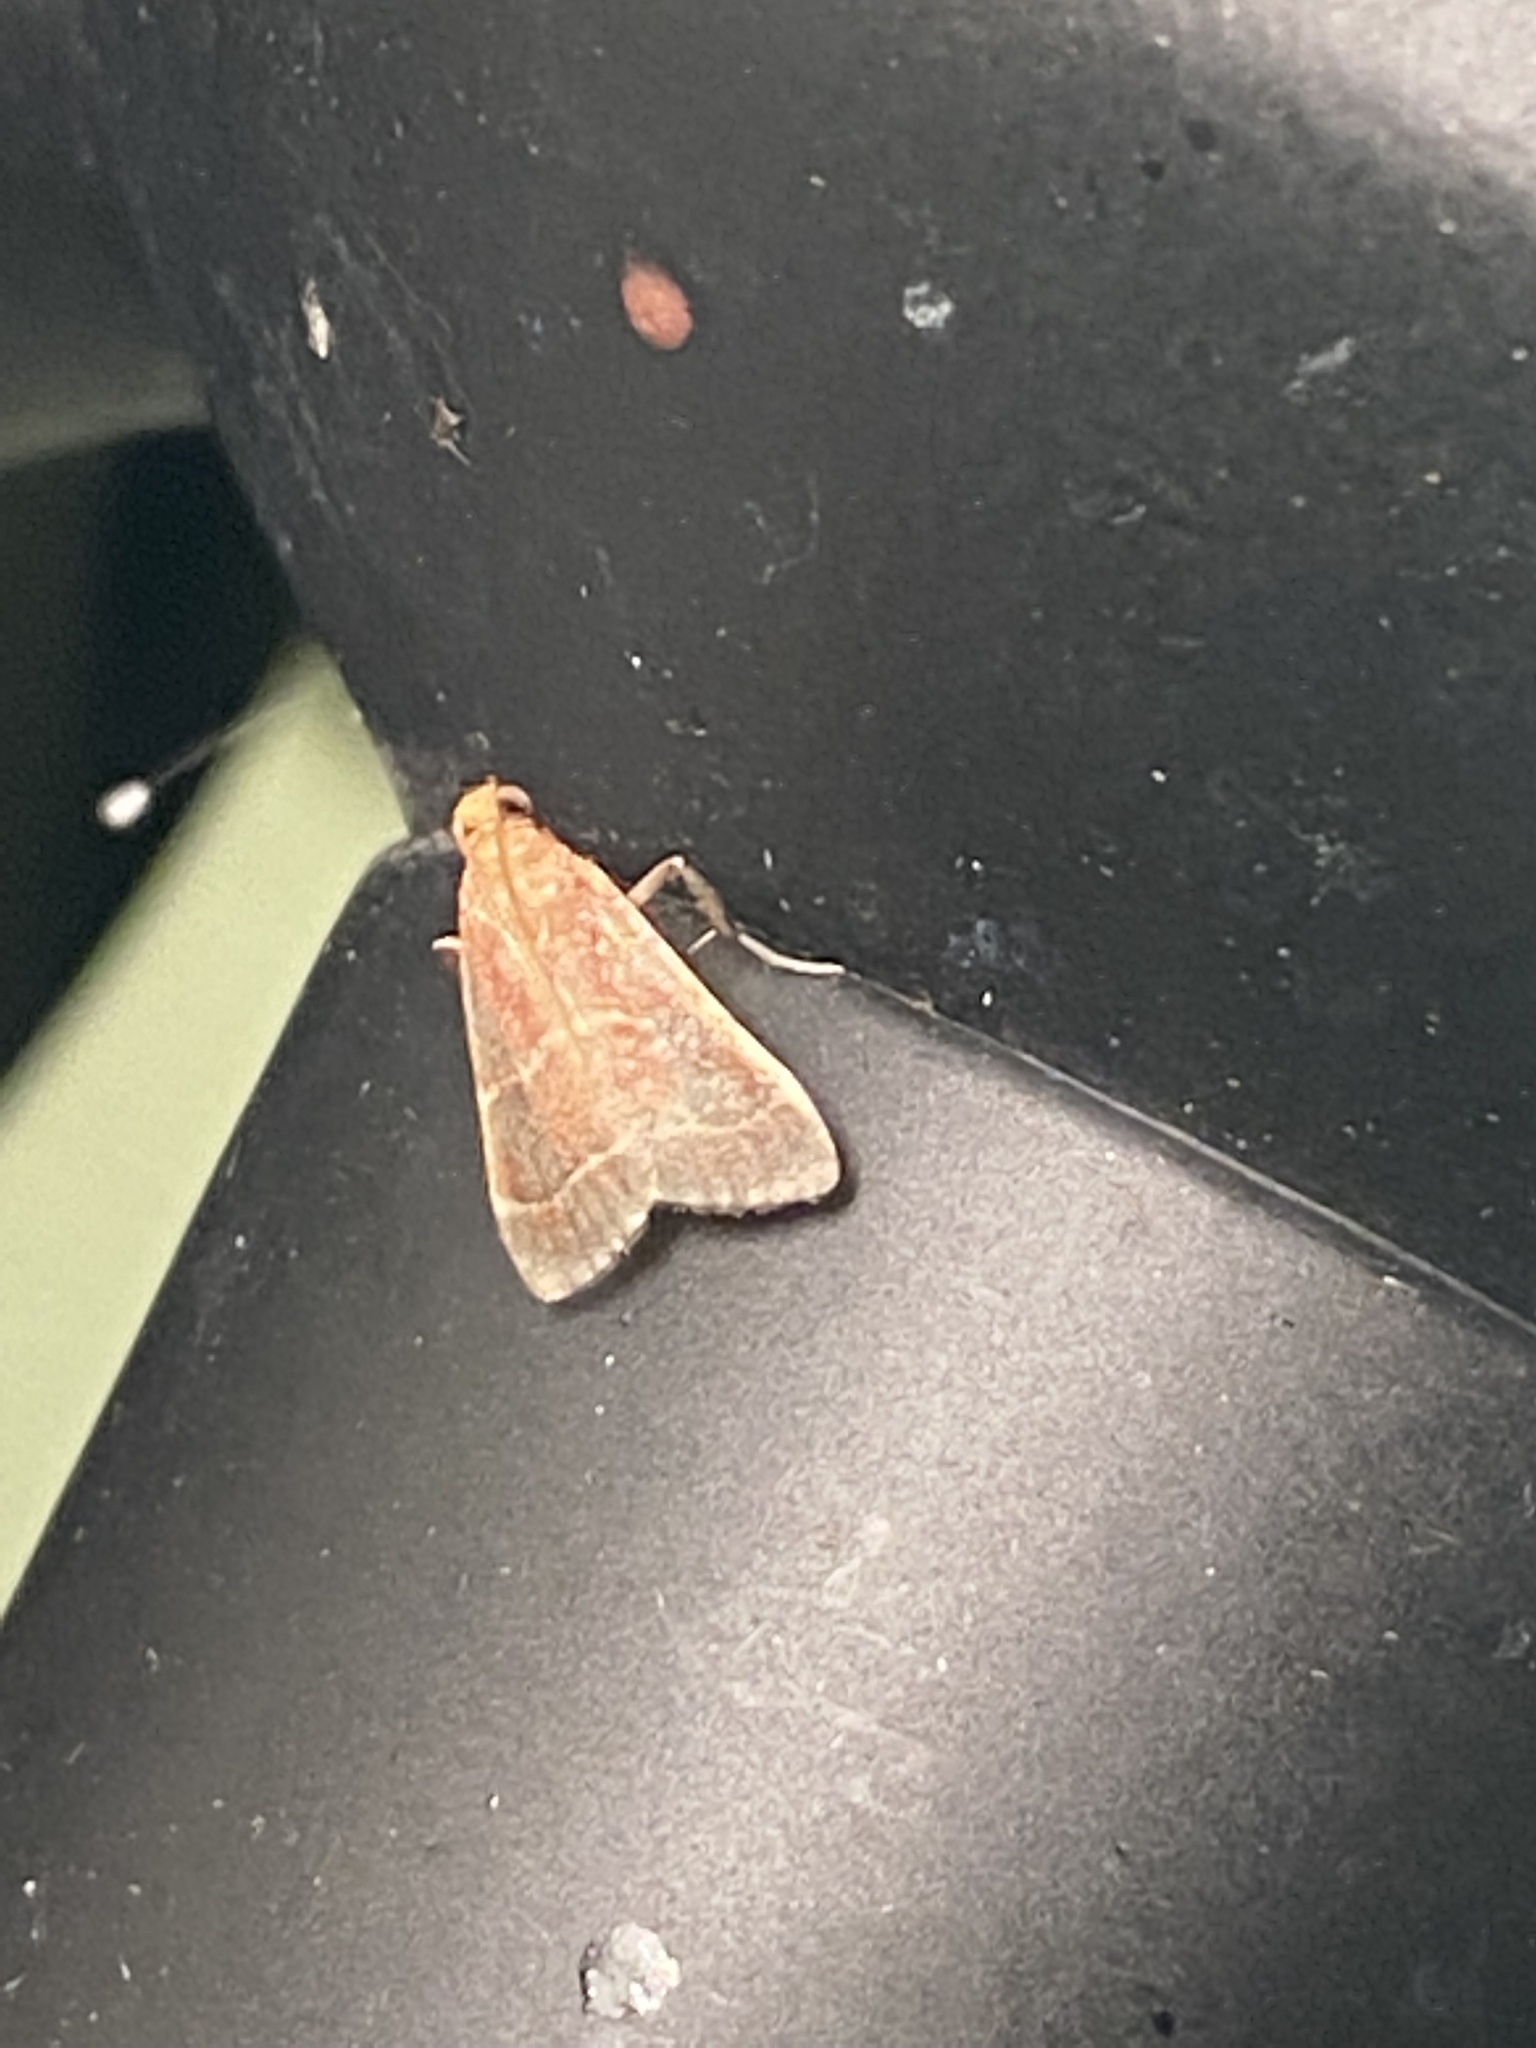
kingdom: Animalia
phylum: Arthropoda
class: Insecta
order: Lepidoptera
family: Pyralidae
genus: Arta
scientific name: Arta statalis
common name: Posturing arta moth
